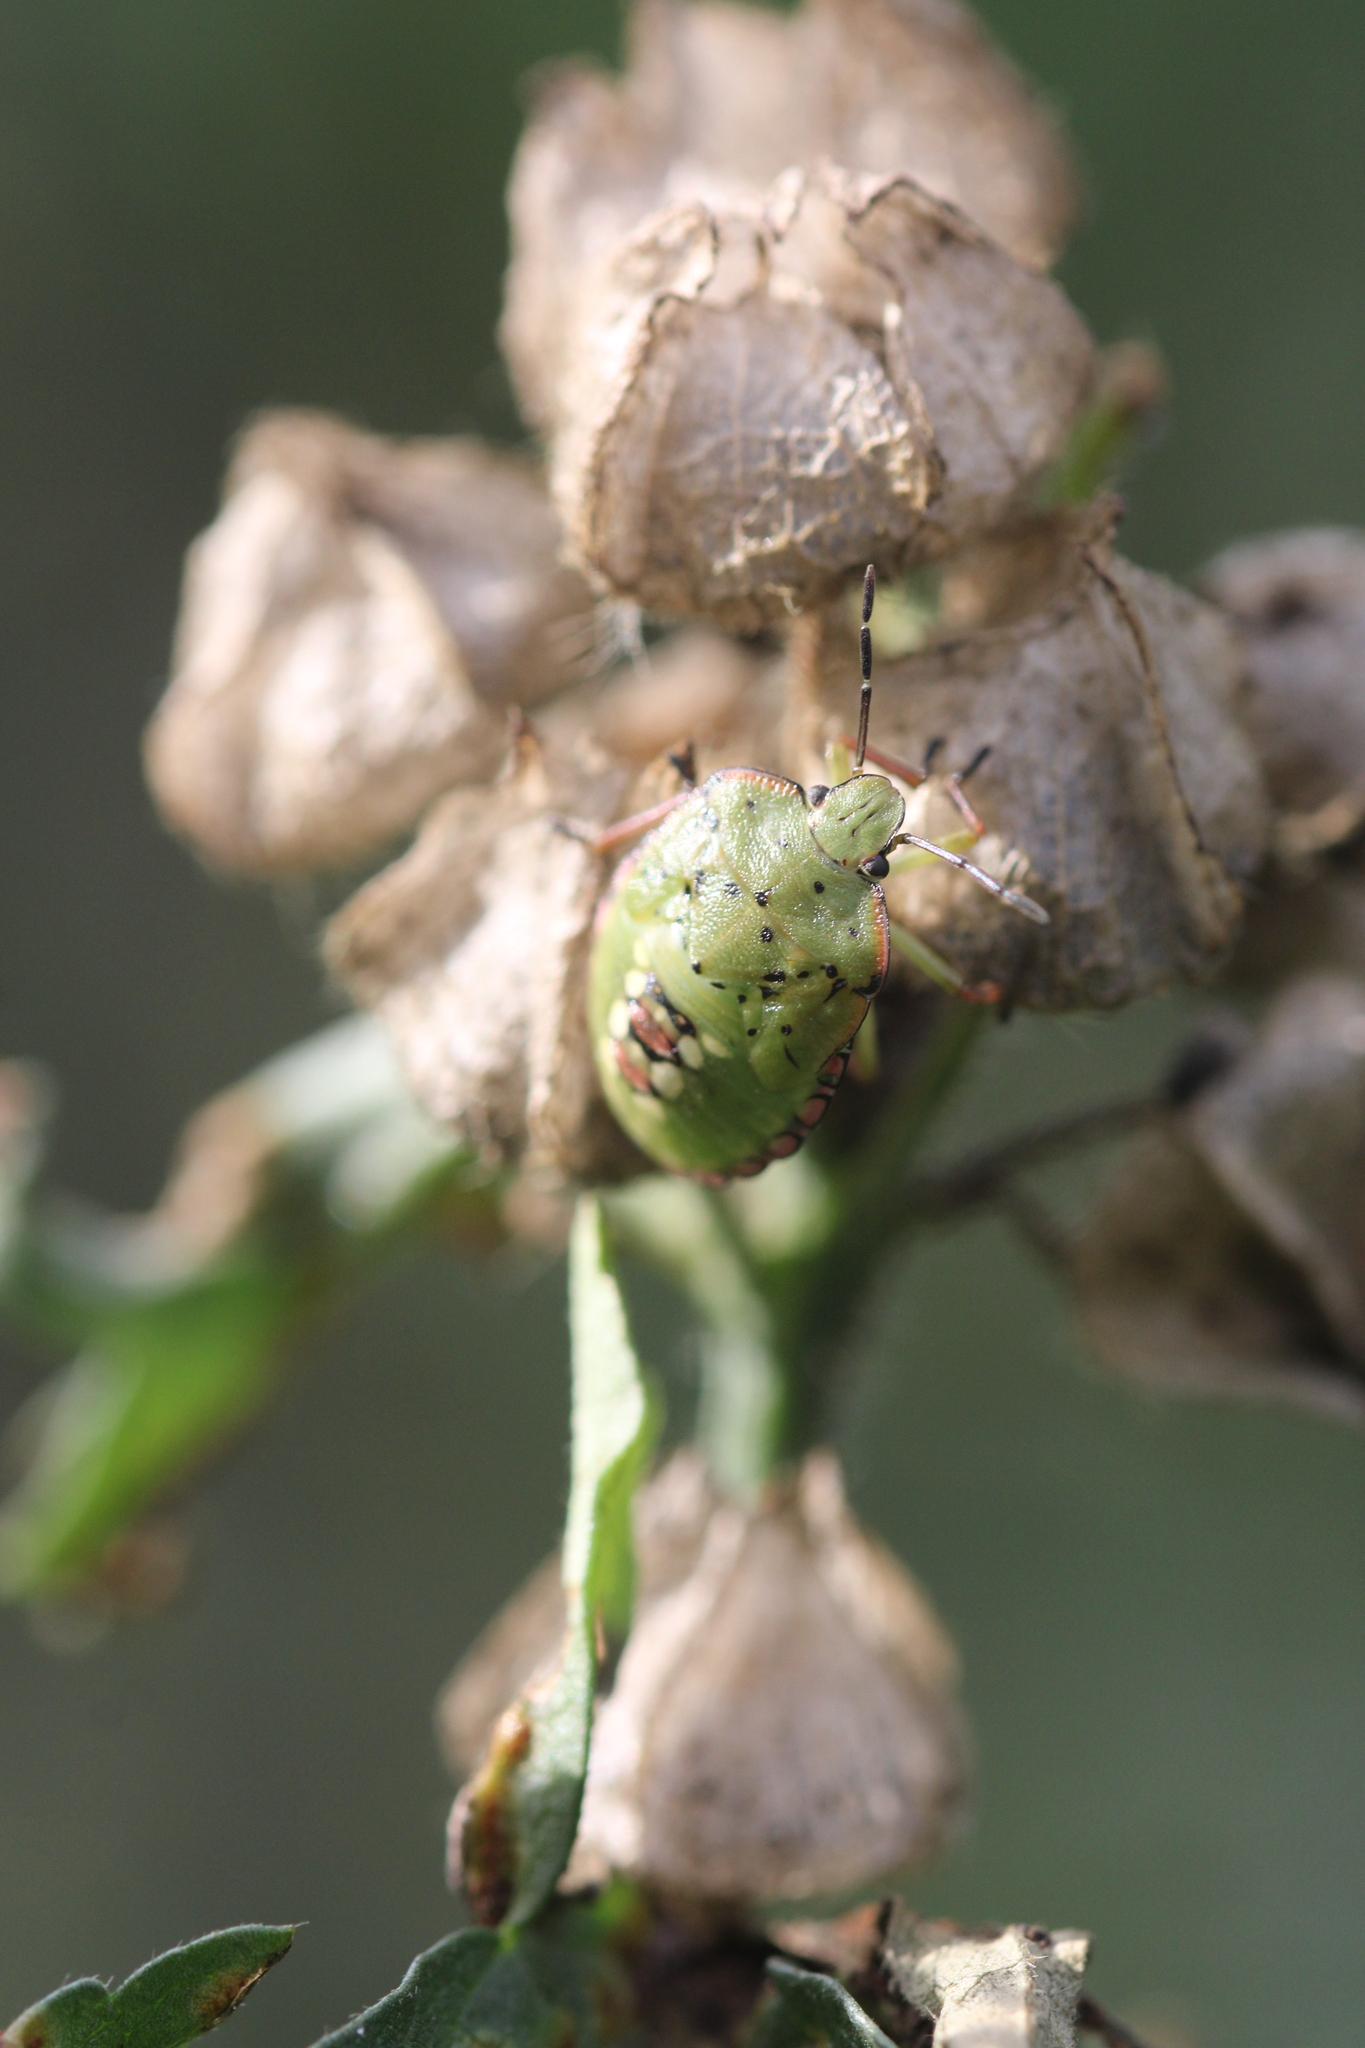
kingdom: Animalia
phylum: Arthropoda
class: Insecta
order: Hemiptera
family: Pentatomidae
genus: Nezara
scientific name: Nezara viridula
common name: Southern green stink bug
